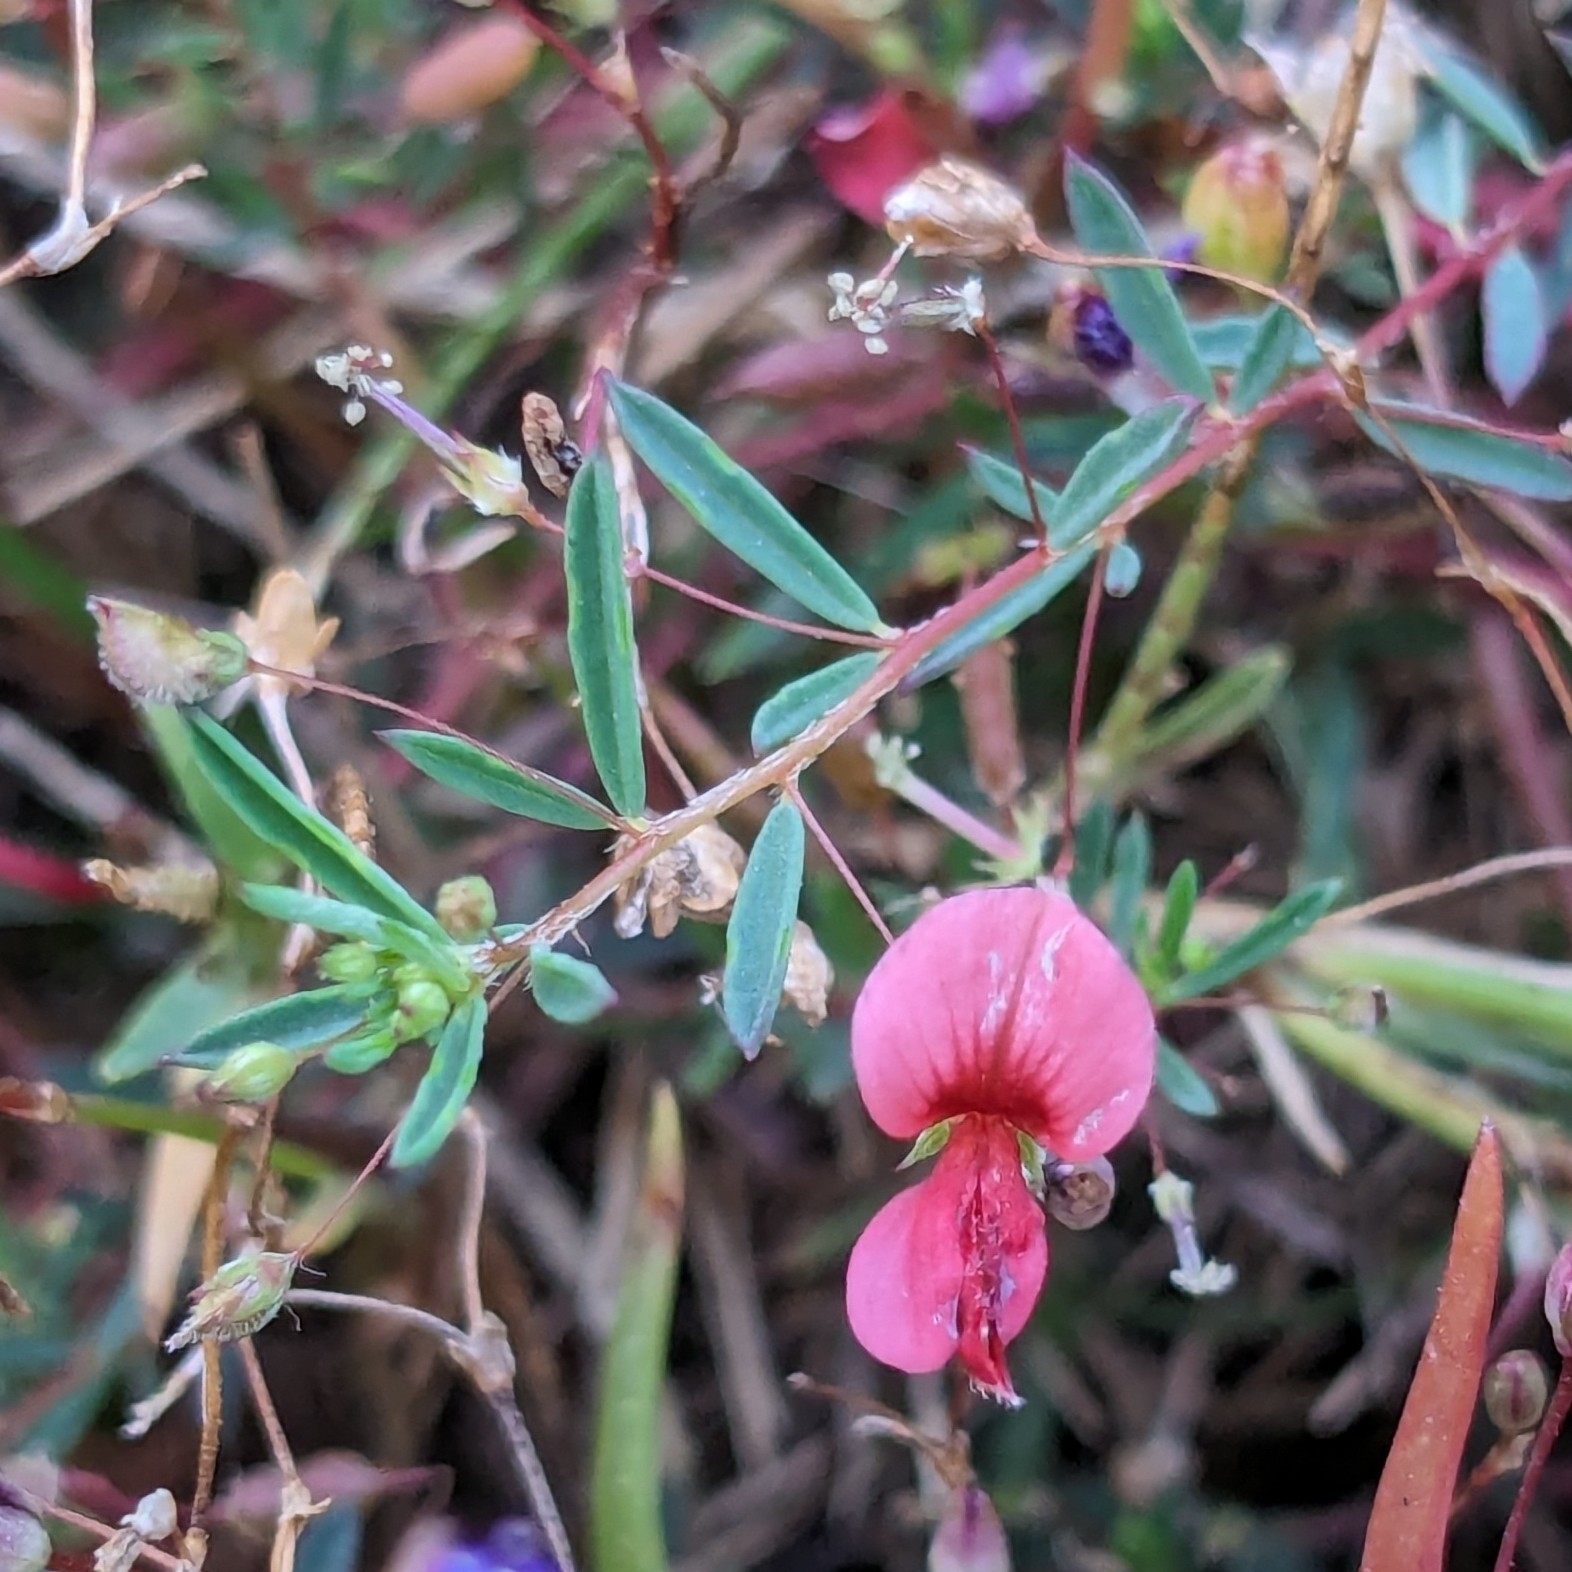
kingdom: Plantae
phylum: Tracheophyta
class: Magnoliopsida
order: Fabales
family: Fabaceae
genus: Indigofera
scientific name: Indigofera linifolia
